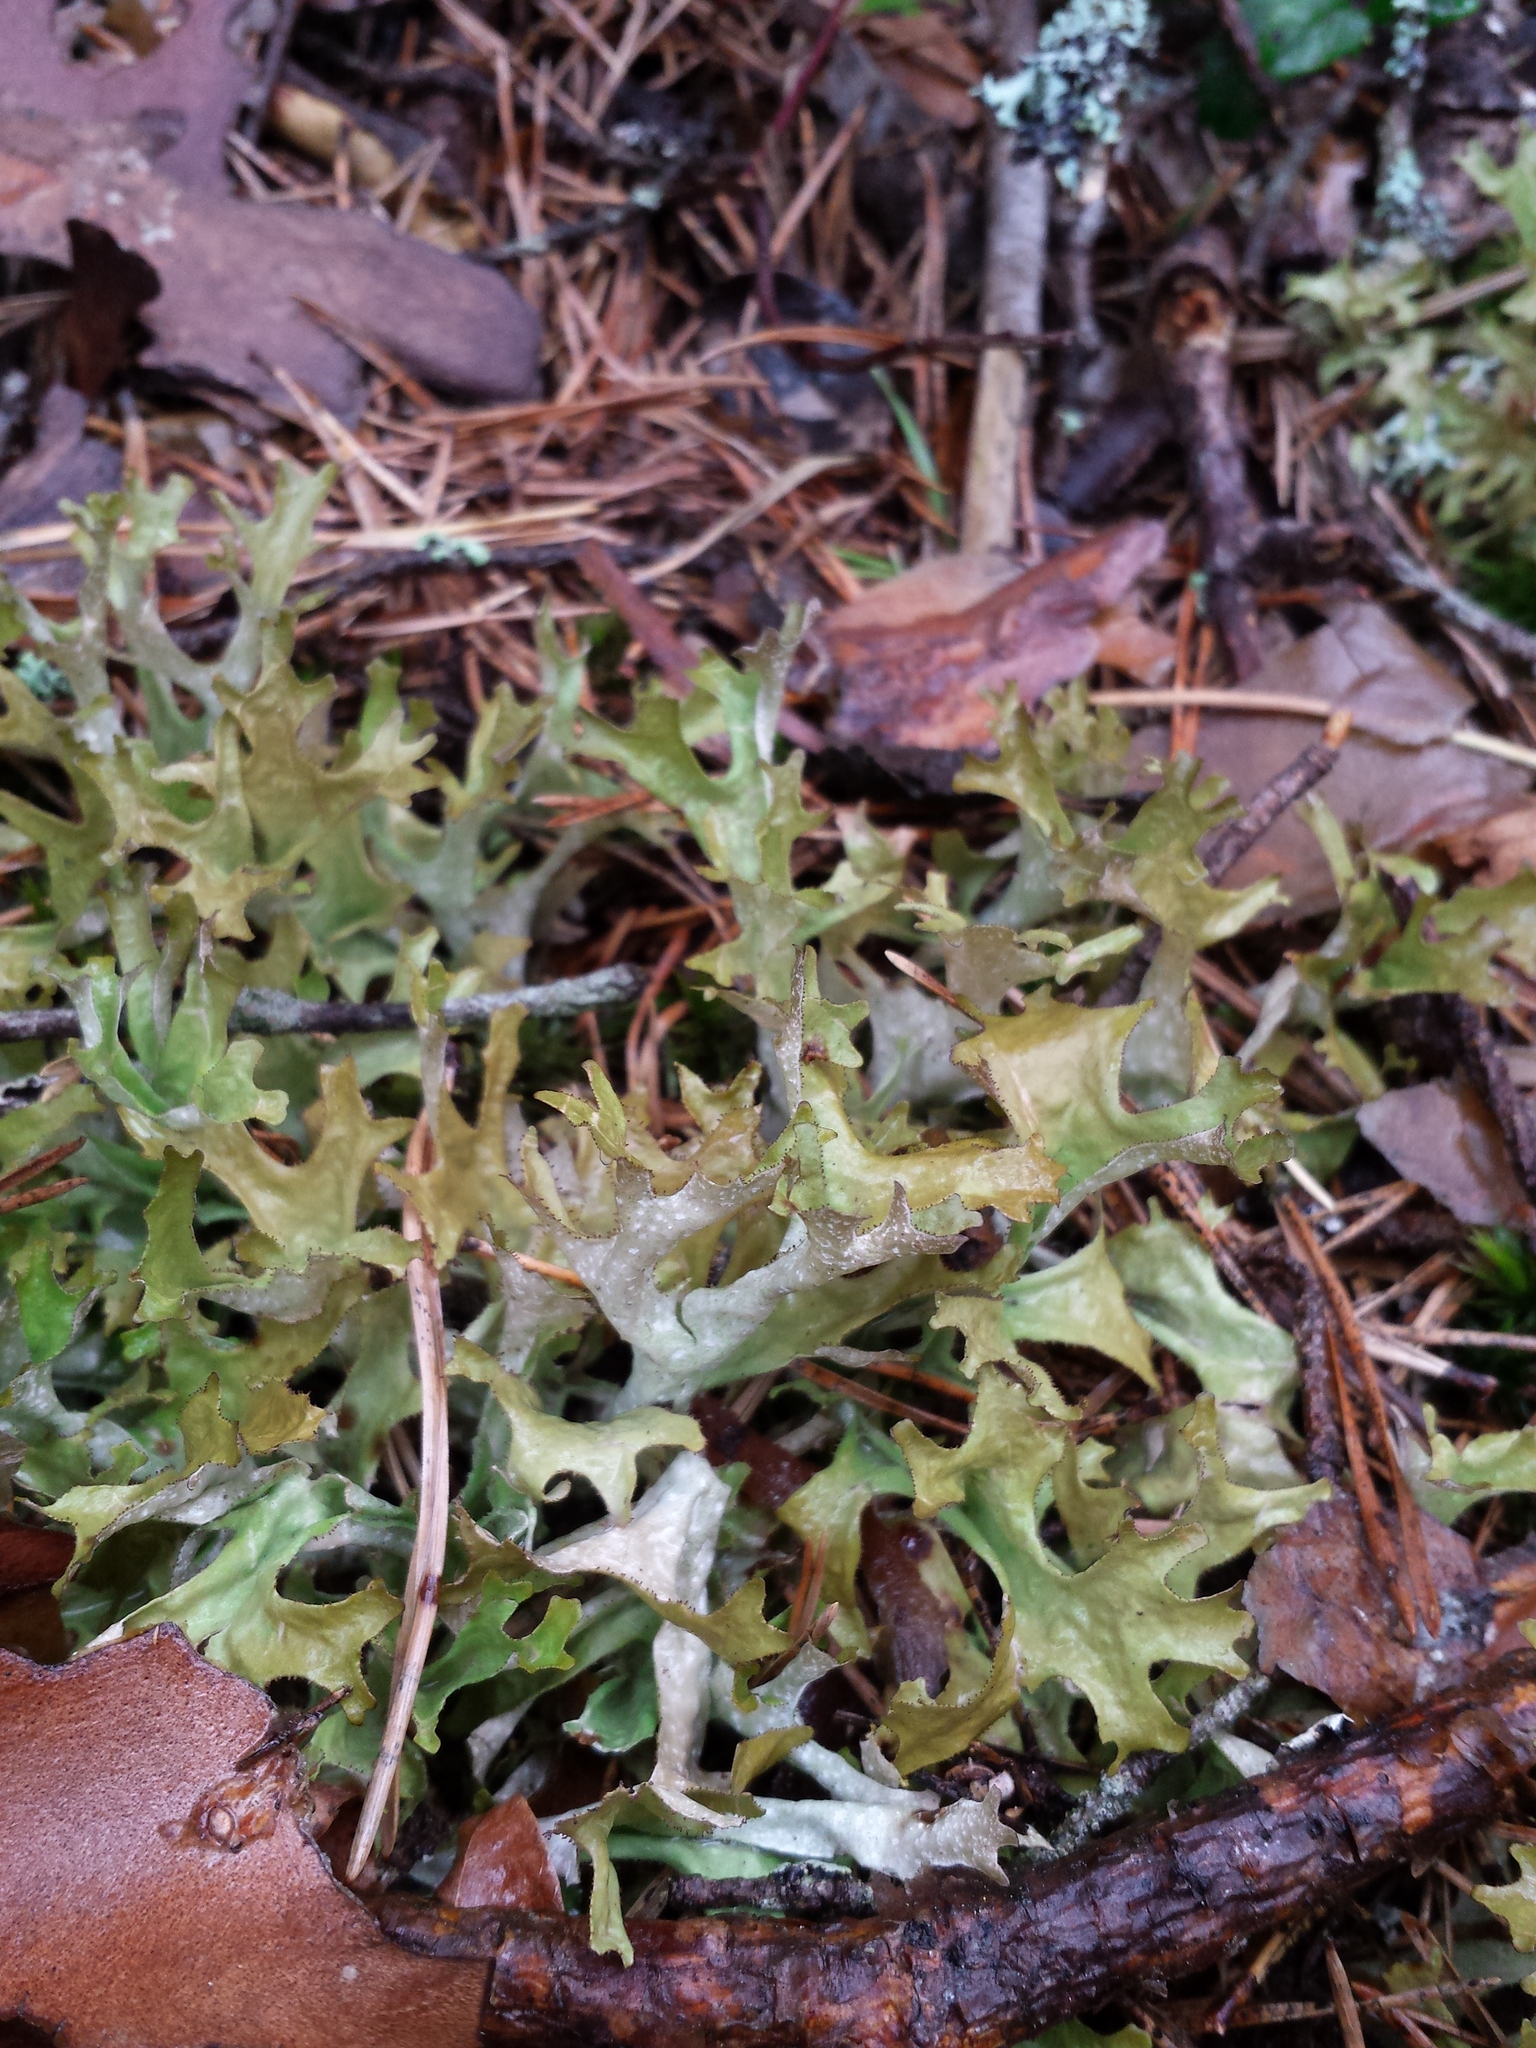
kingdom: Fungi
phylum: Ascomycota
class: Lecanoromycetes
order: Lecanorales
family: Parmeliaceae
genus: Cetraria
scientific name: Cetraria islandica
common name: Iceland lichen
